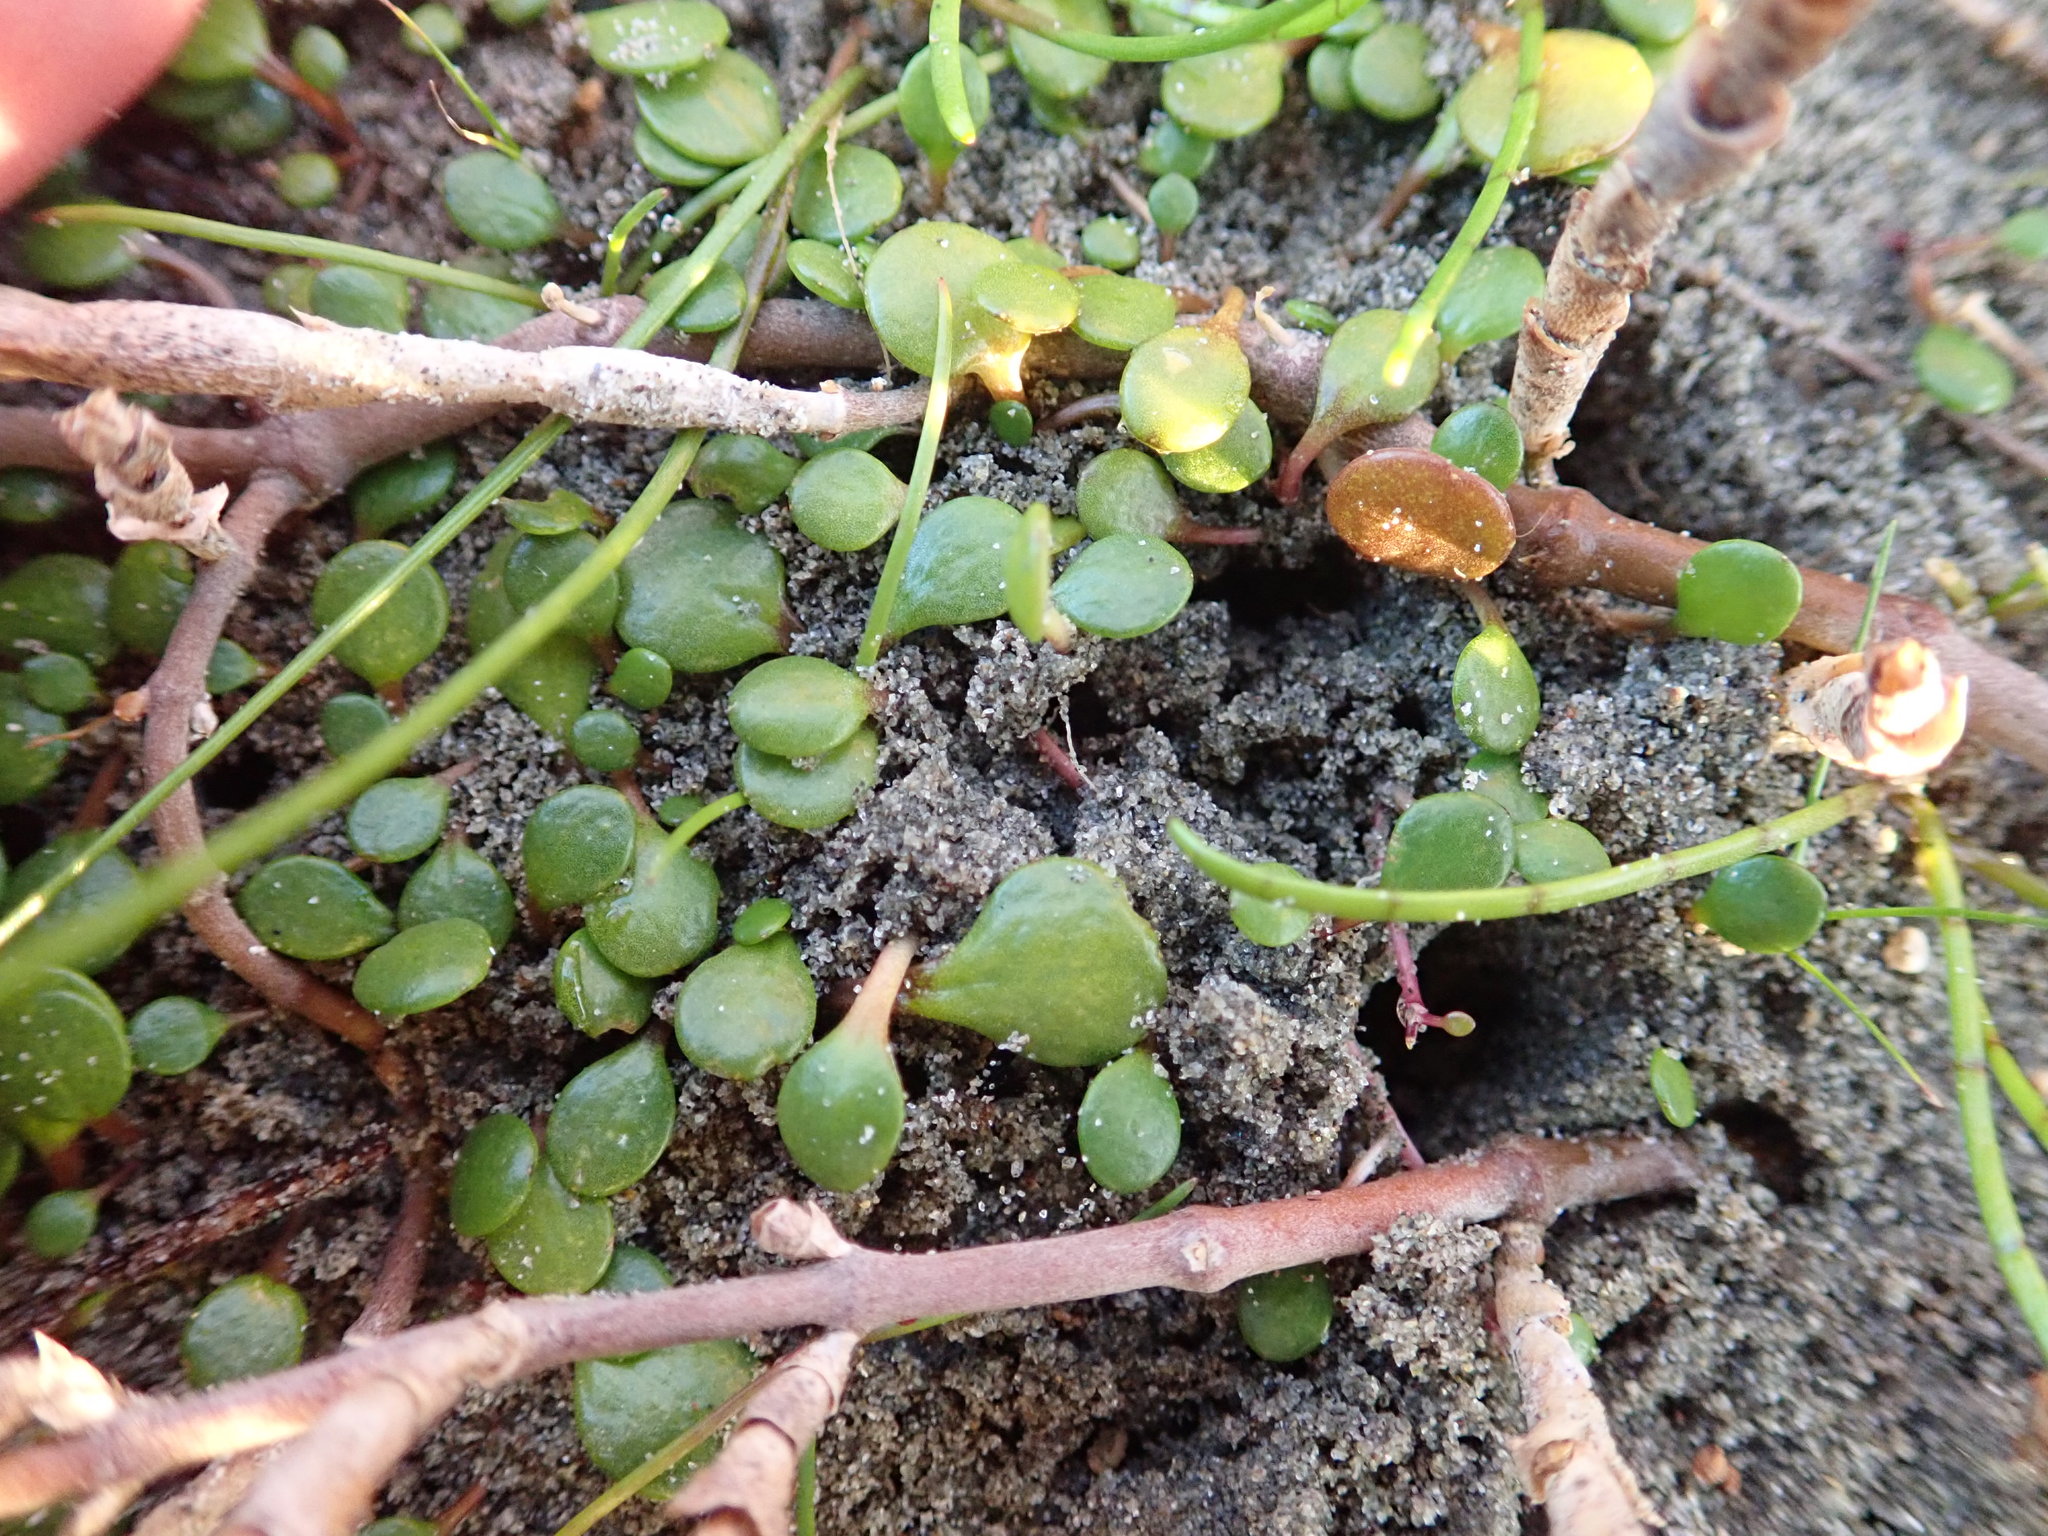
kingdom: Plantae
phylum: Tracheophyta
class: Magnoliopsida
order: Asterales
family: Goodeniaceae
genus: Goodenia
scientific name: Goodenia heenanii
